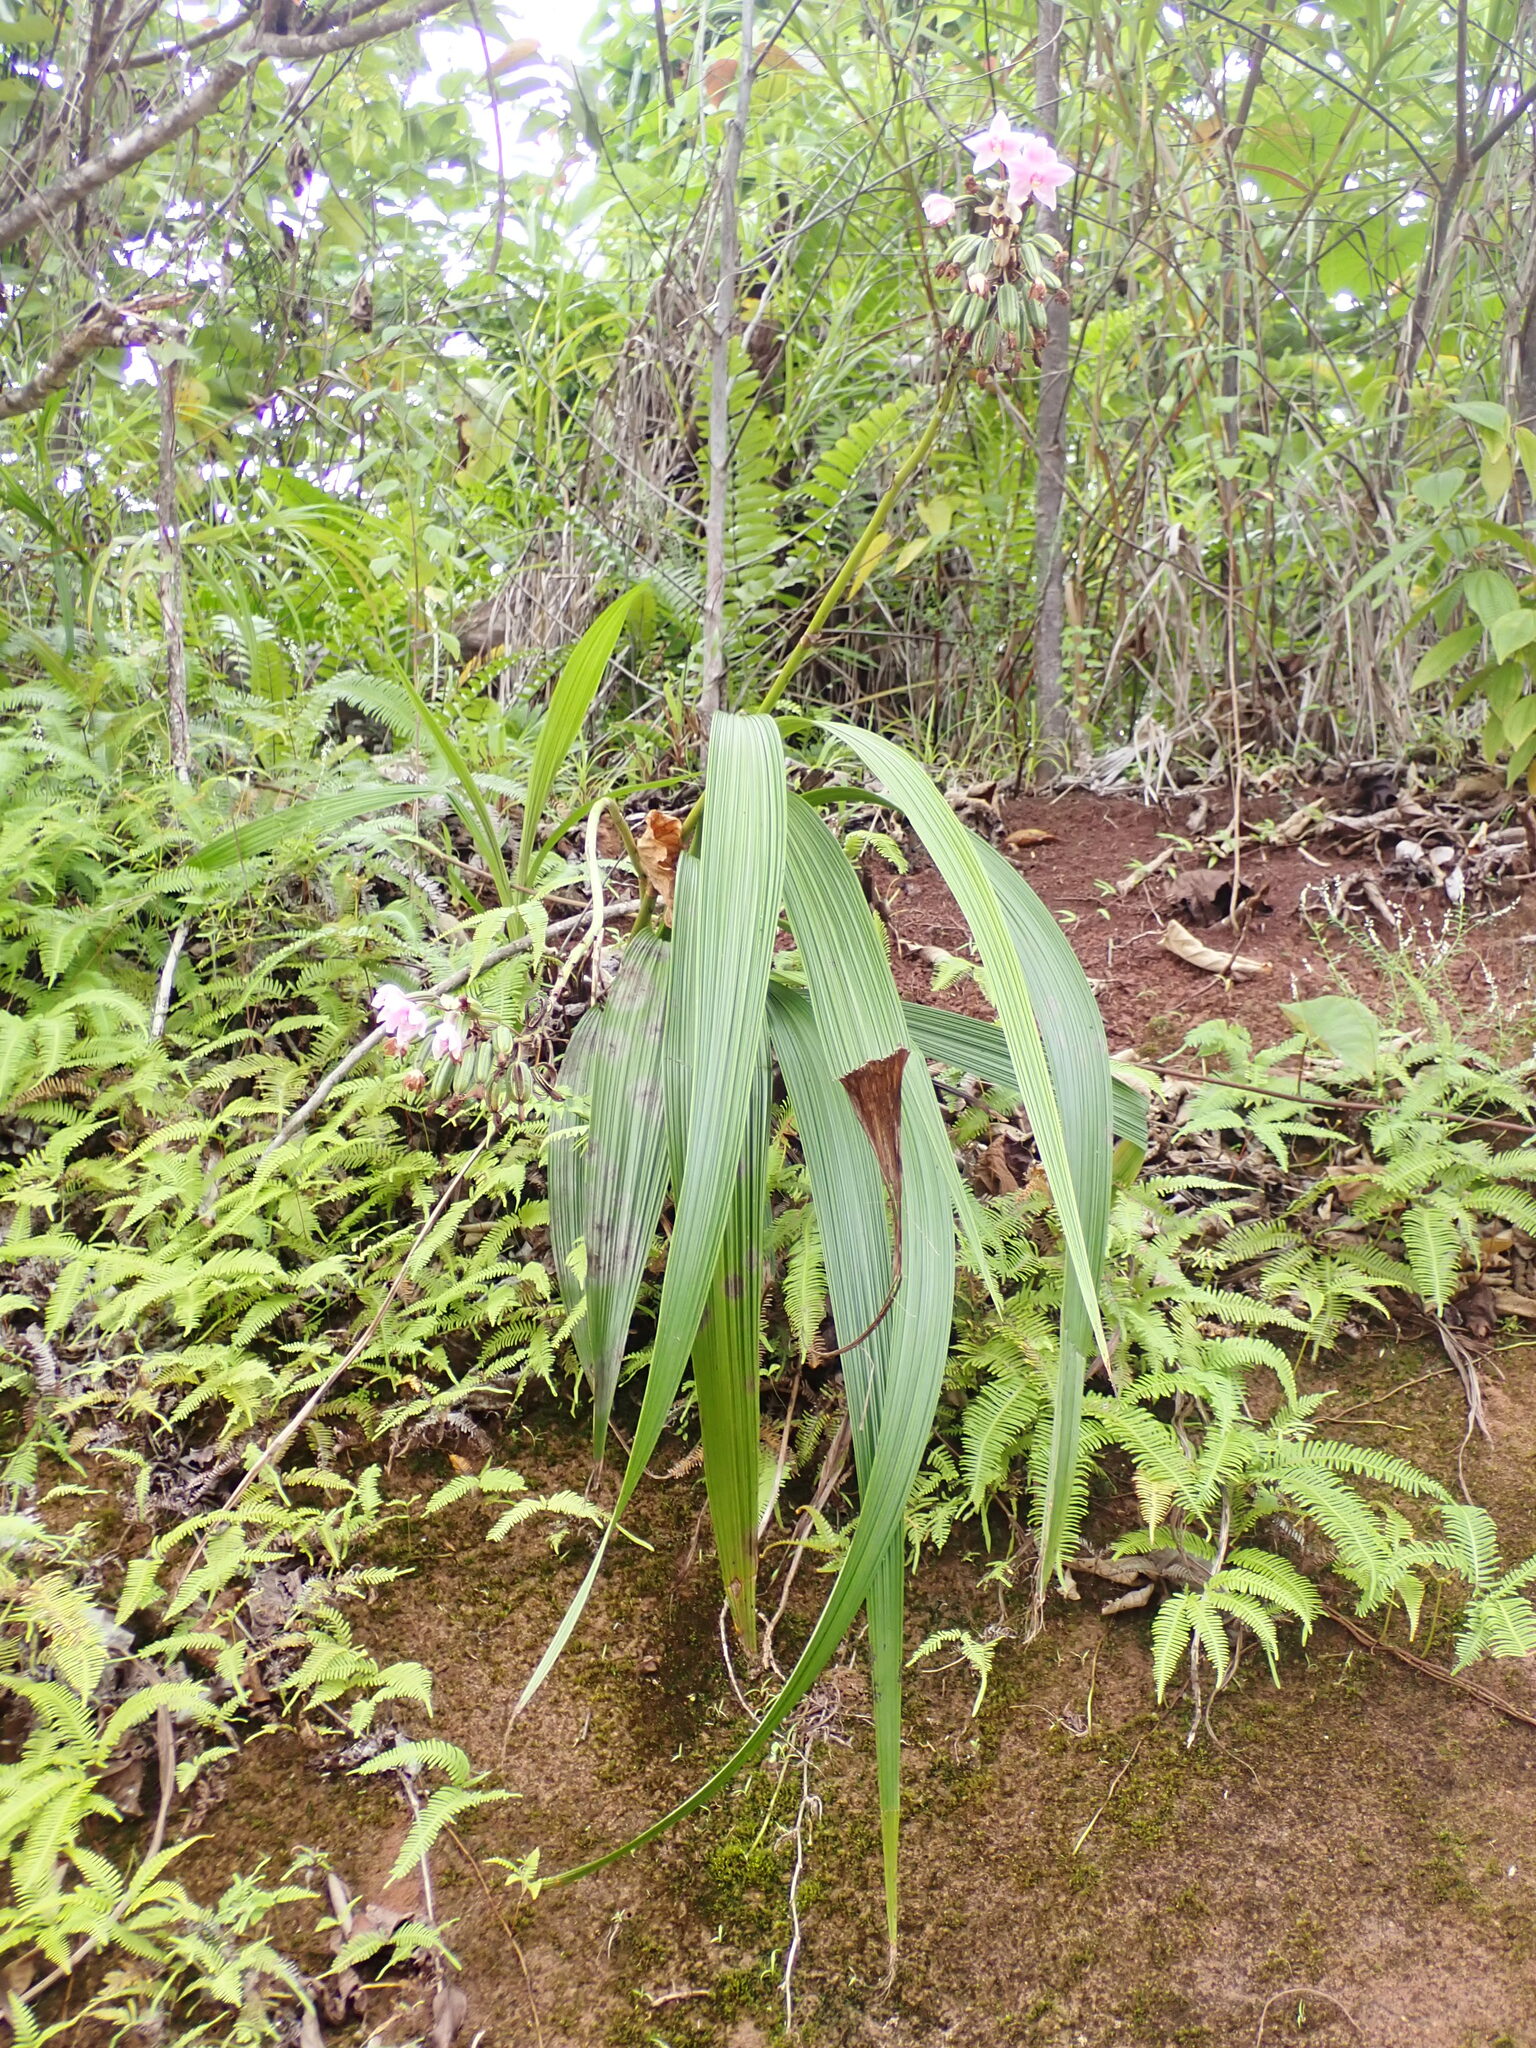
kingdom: Plantae
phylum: Tracheophyta
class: Liliopsida
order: Asparagales
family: Orchidaceae
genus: Spathoglottis
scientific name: Spathoglottis plicata
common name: Philippine ground orchid
